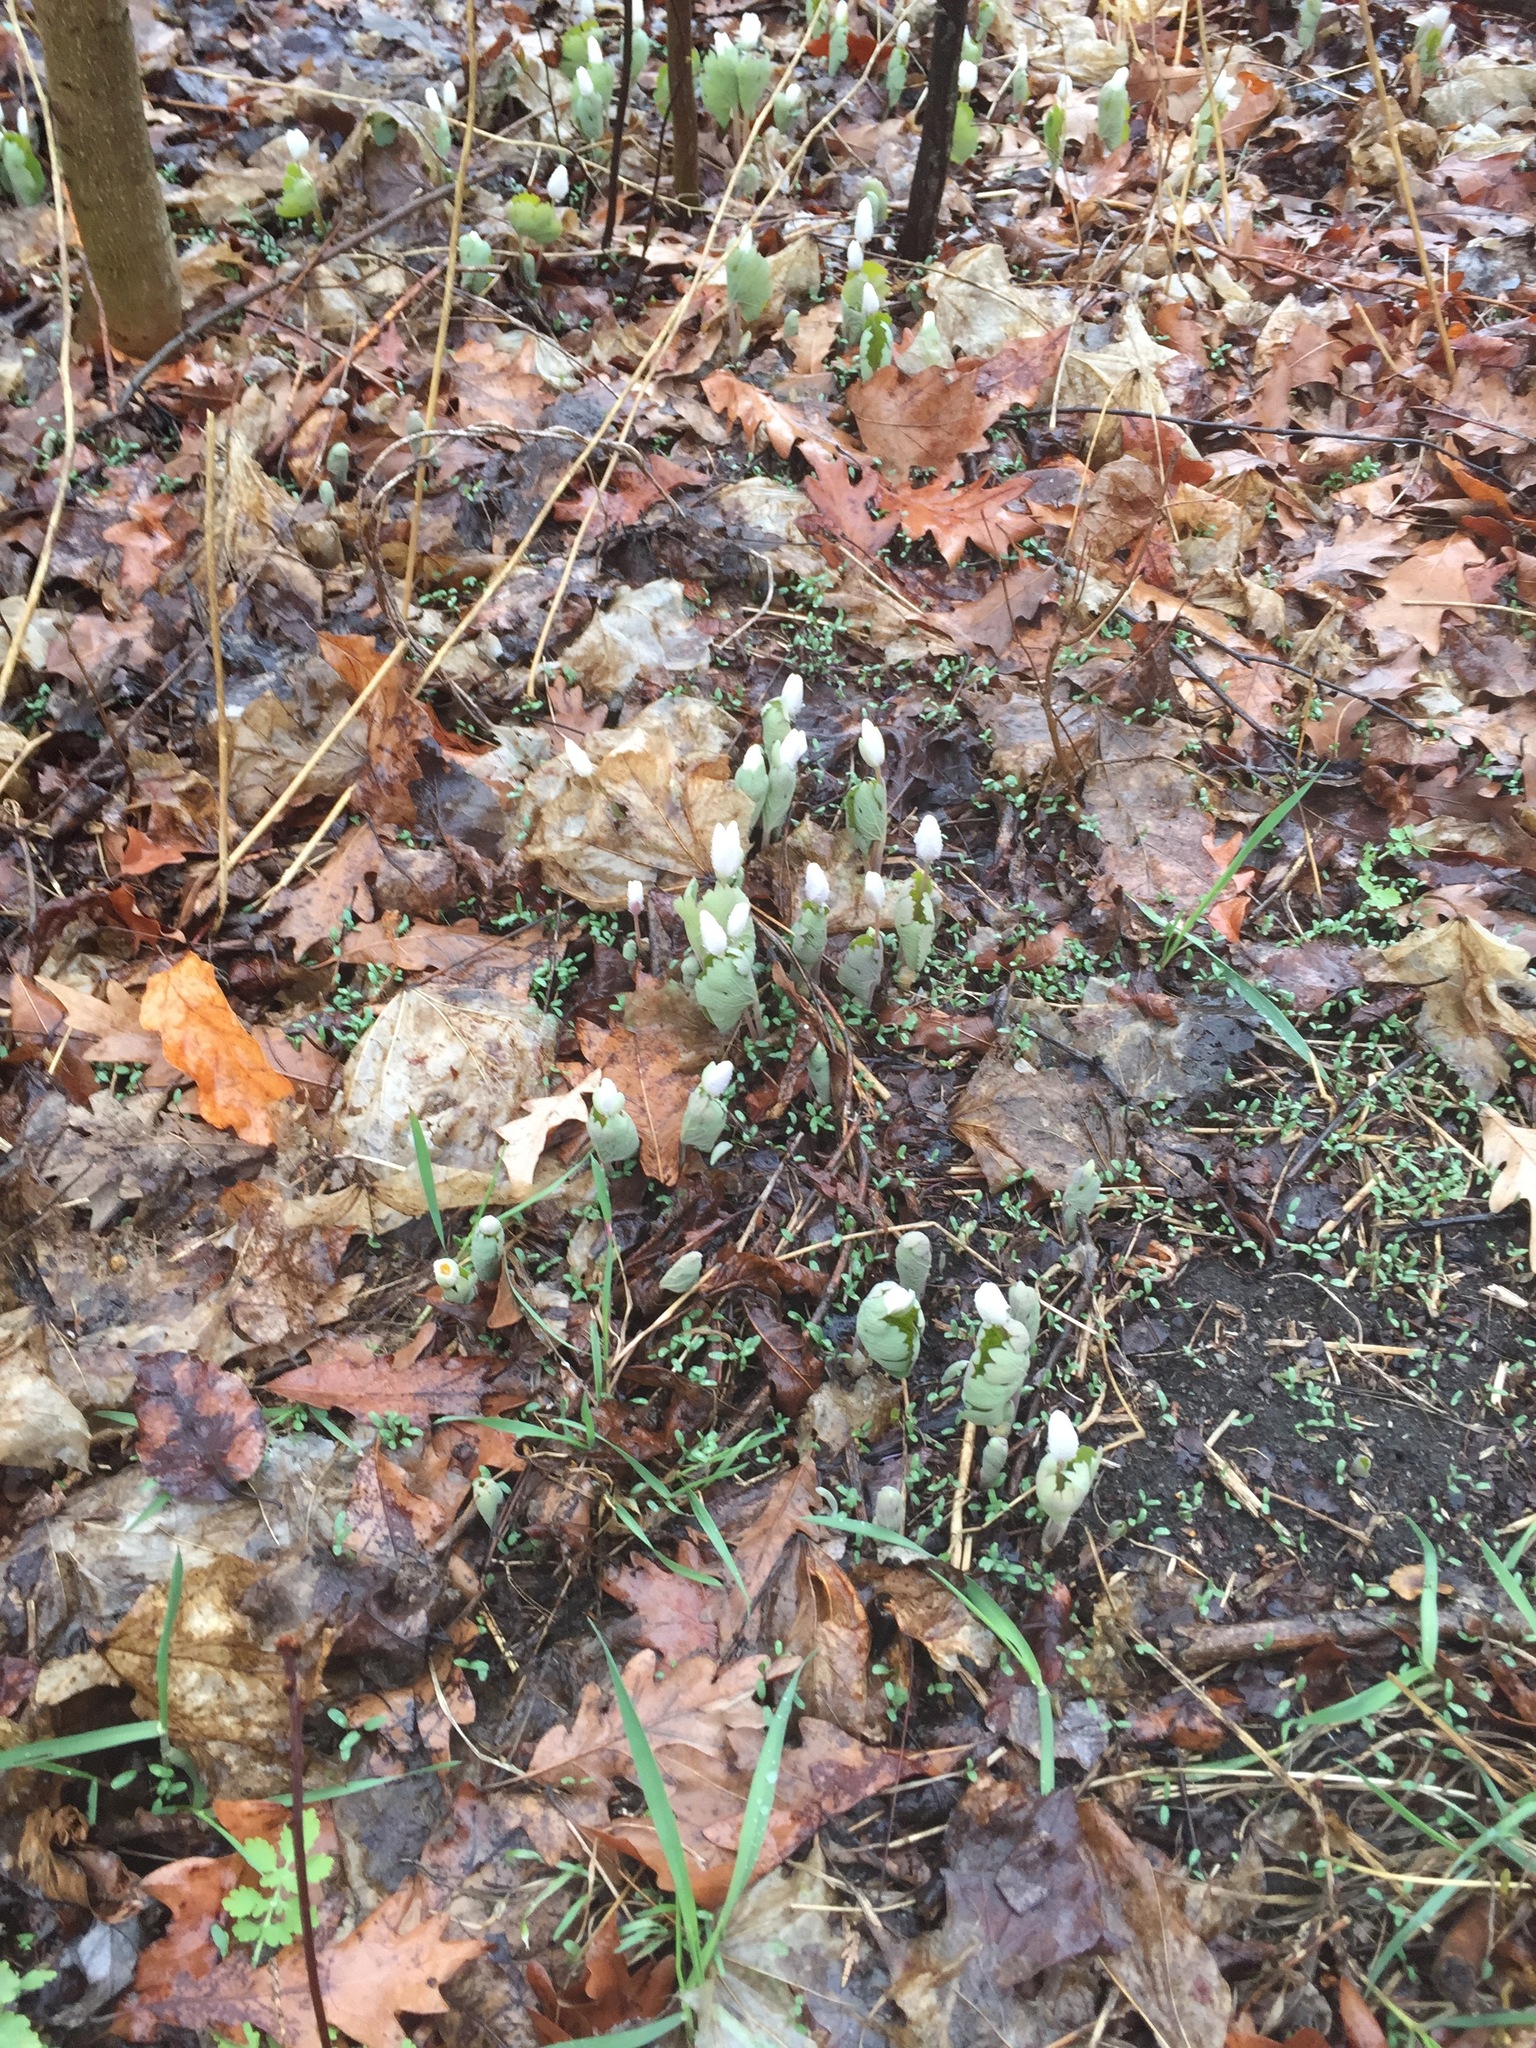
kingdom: Plantae
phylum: Tracheophyta
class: Magnoliopsida
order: Ranunculales
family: Papaveraceae
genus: Sanguinaria
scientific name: Sanguinaria canadensis
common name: Bloodroot
